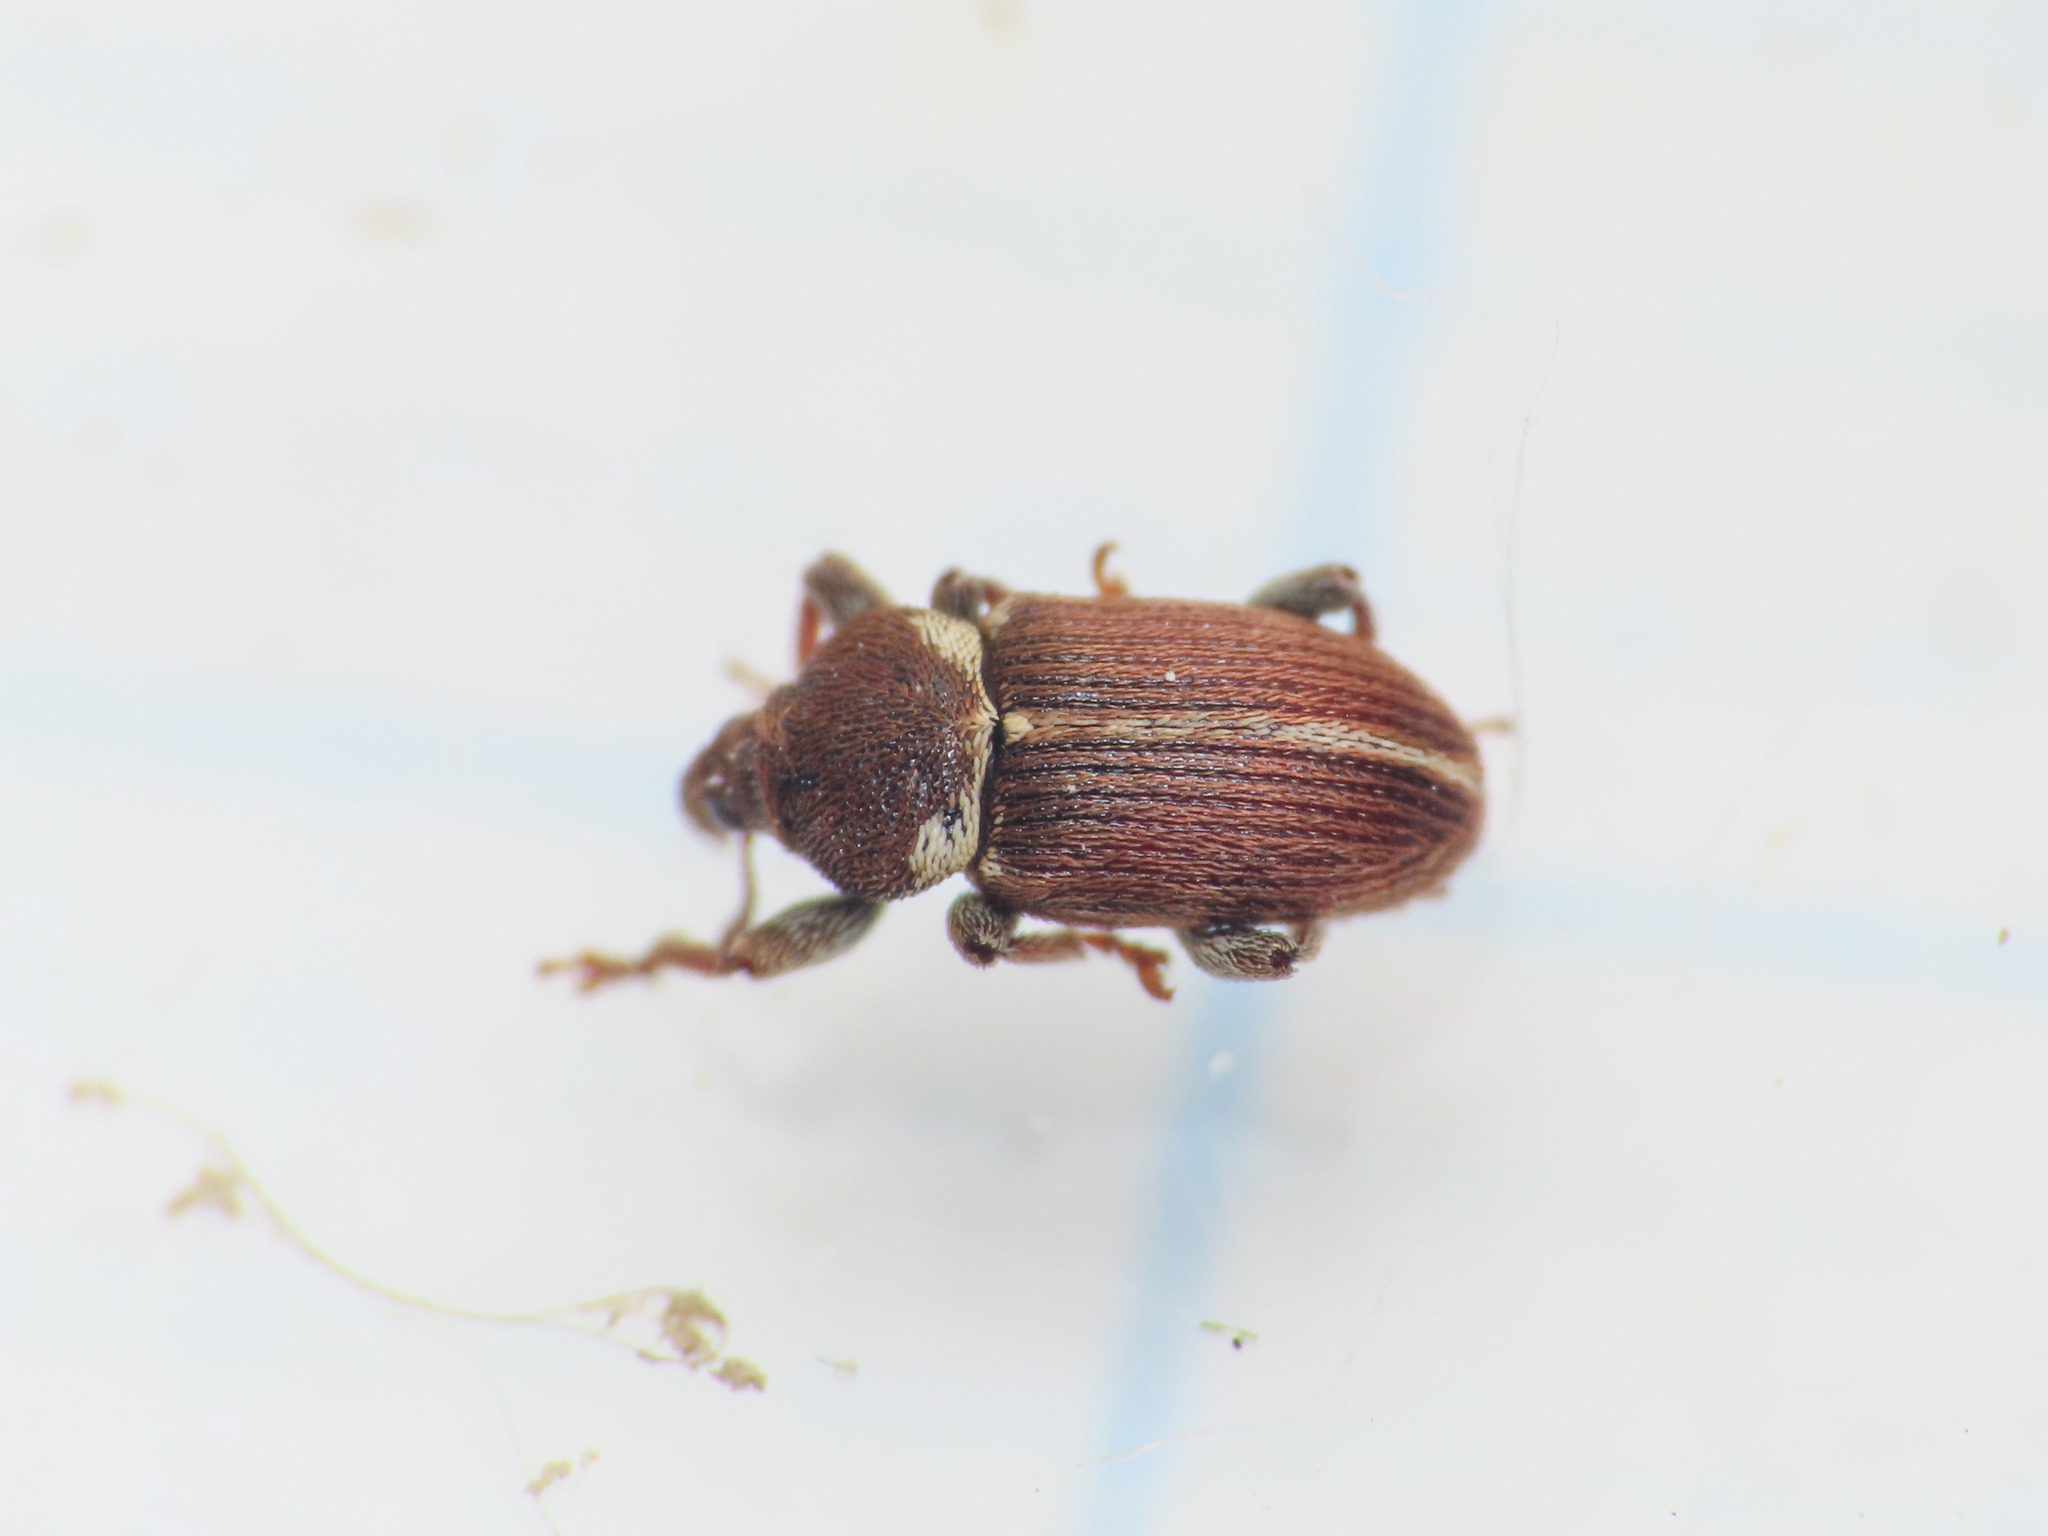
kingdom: Animalia
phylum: Arthropoda
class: Insecta
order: Coleoptera
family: Curculionidae
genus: Tychius
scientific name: Tychius thoracicus
